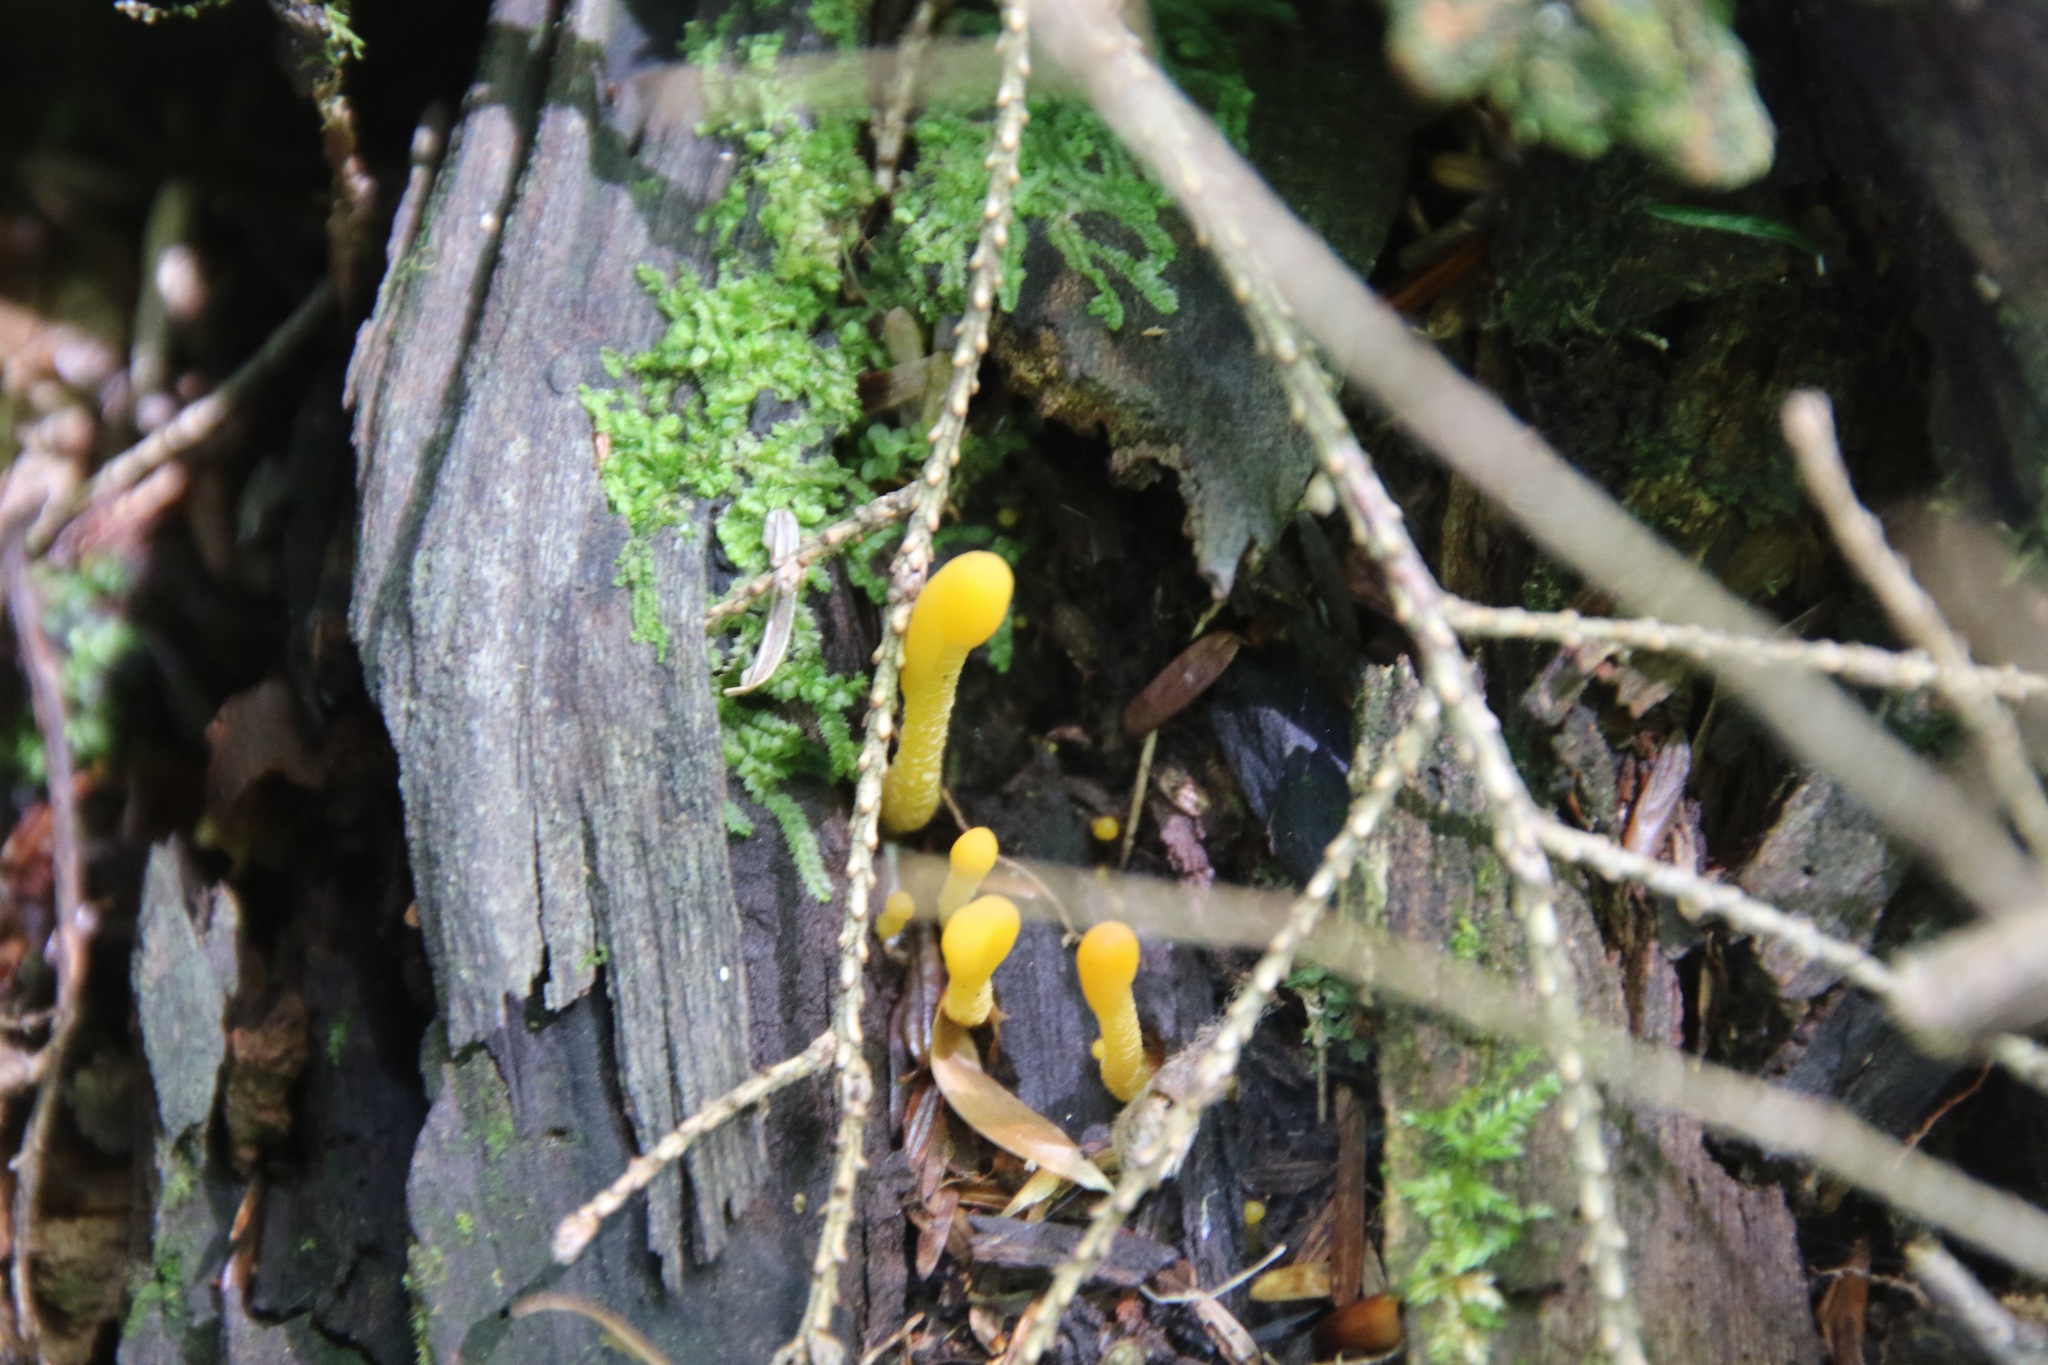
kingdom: Fungi
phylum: Ascomycota
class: Leotiomycetes
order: Leotiales
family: Leotiaceae
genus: Microglossum
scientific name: Microglossum rufum
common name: Orange earthtongue
